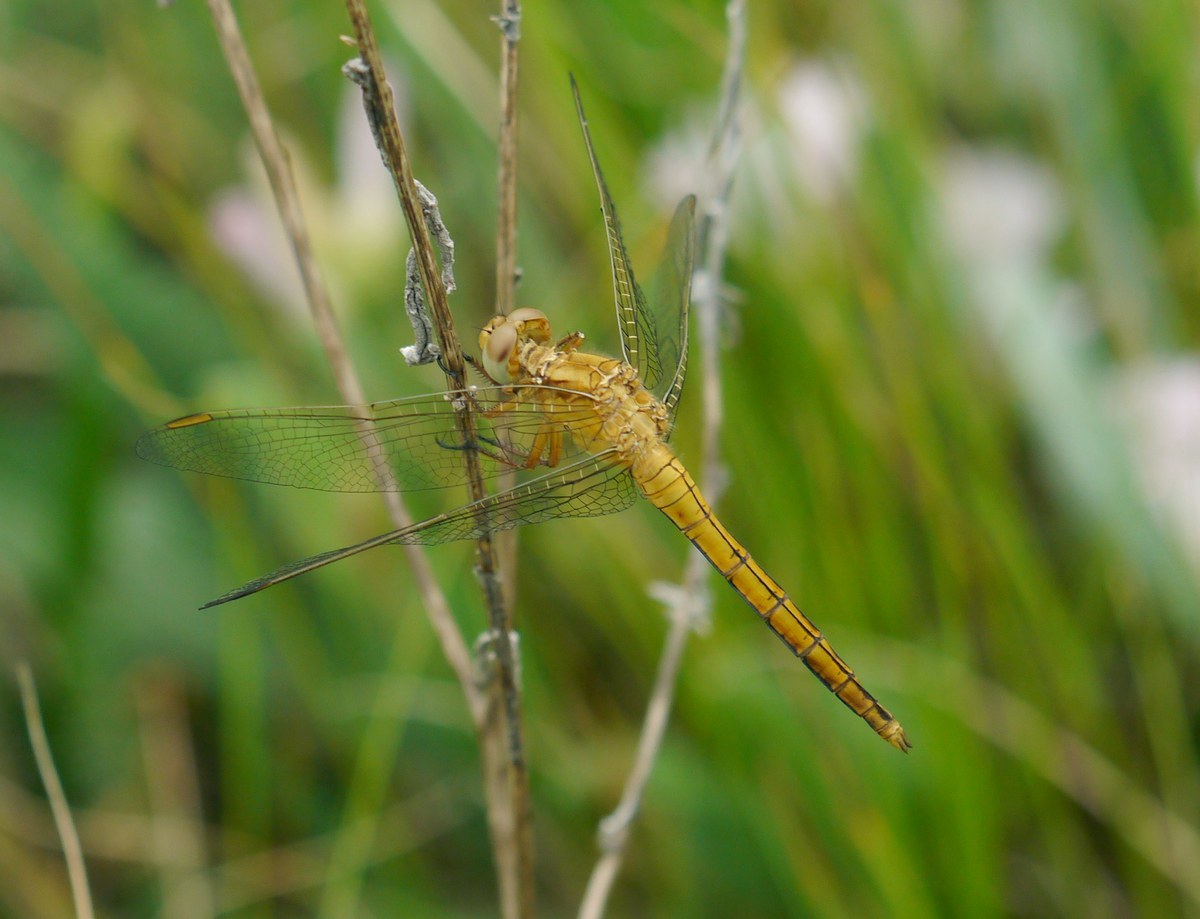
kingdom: Animalia
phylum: Arthropoda
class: Insecta
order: Odonata
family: Libellulidae
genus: Orthetrum
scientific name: Orthetrum coerulescens
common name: Keeled skimmer
